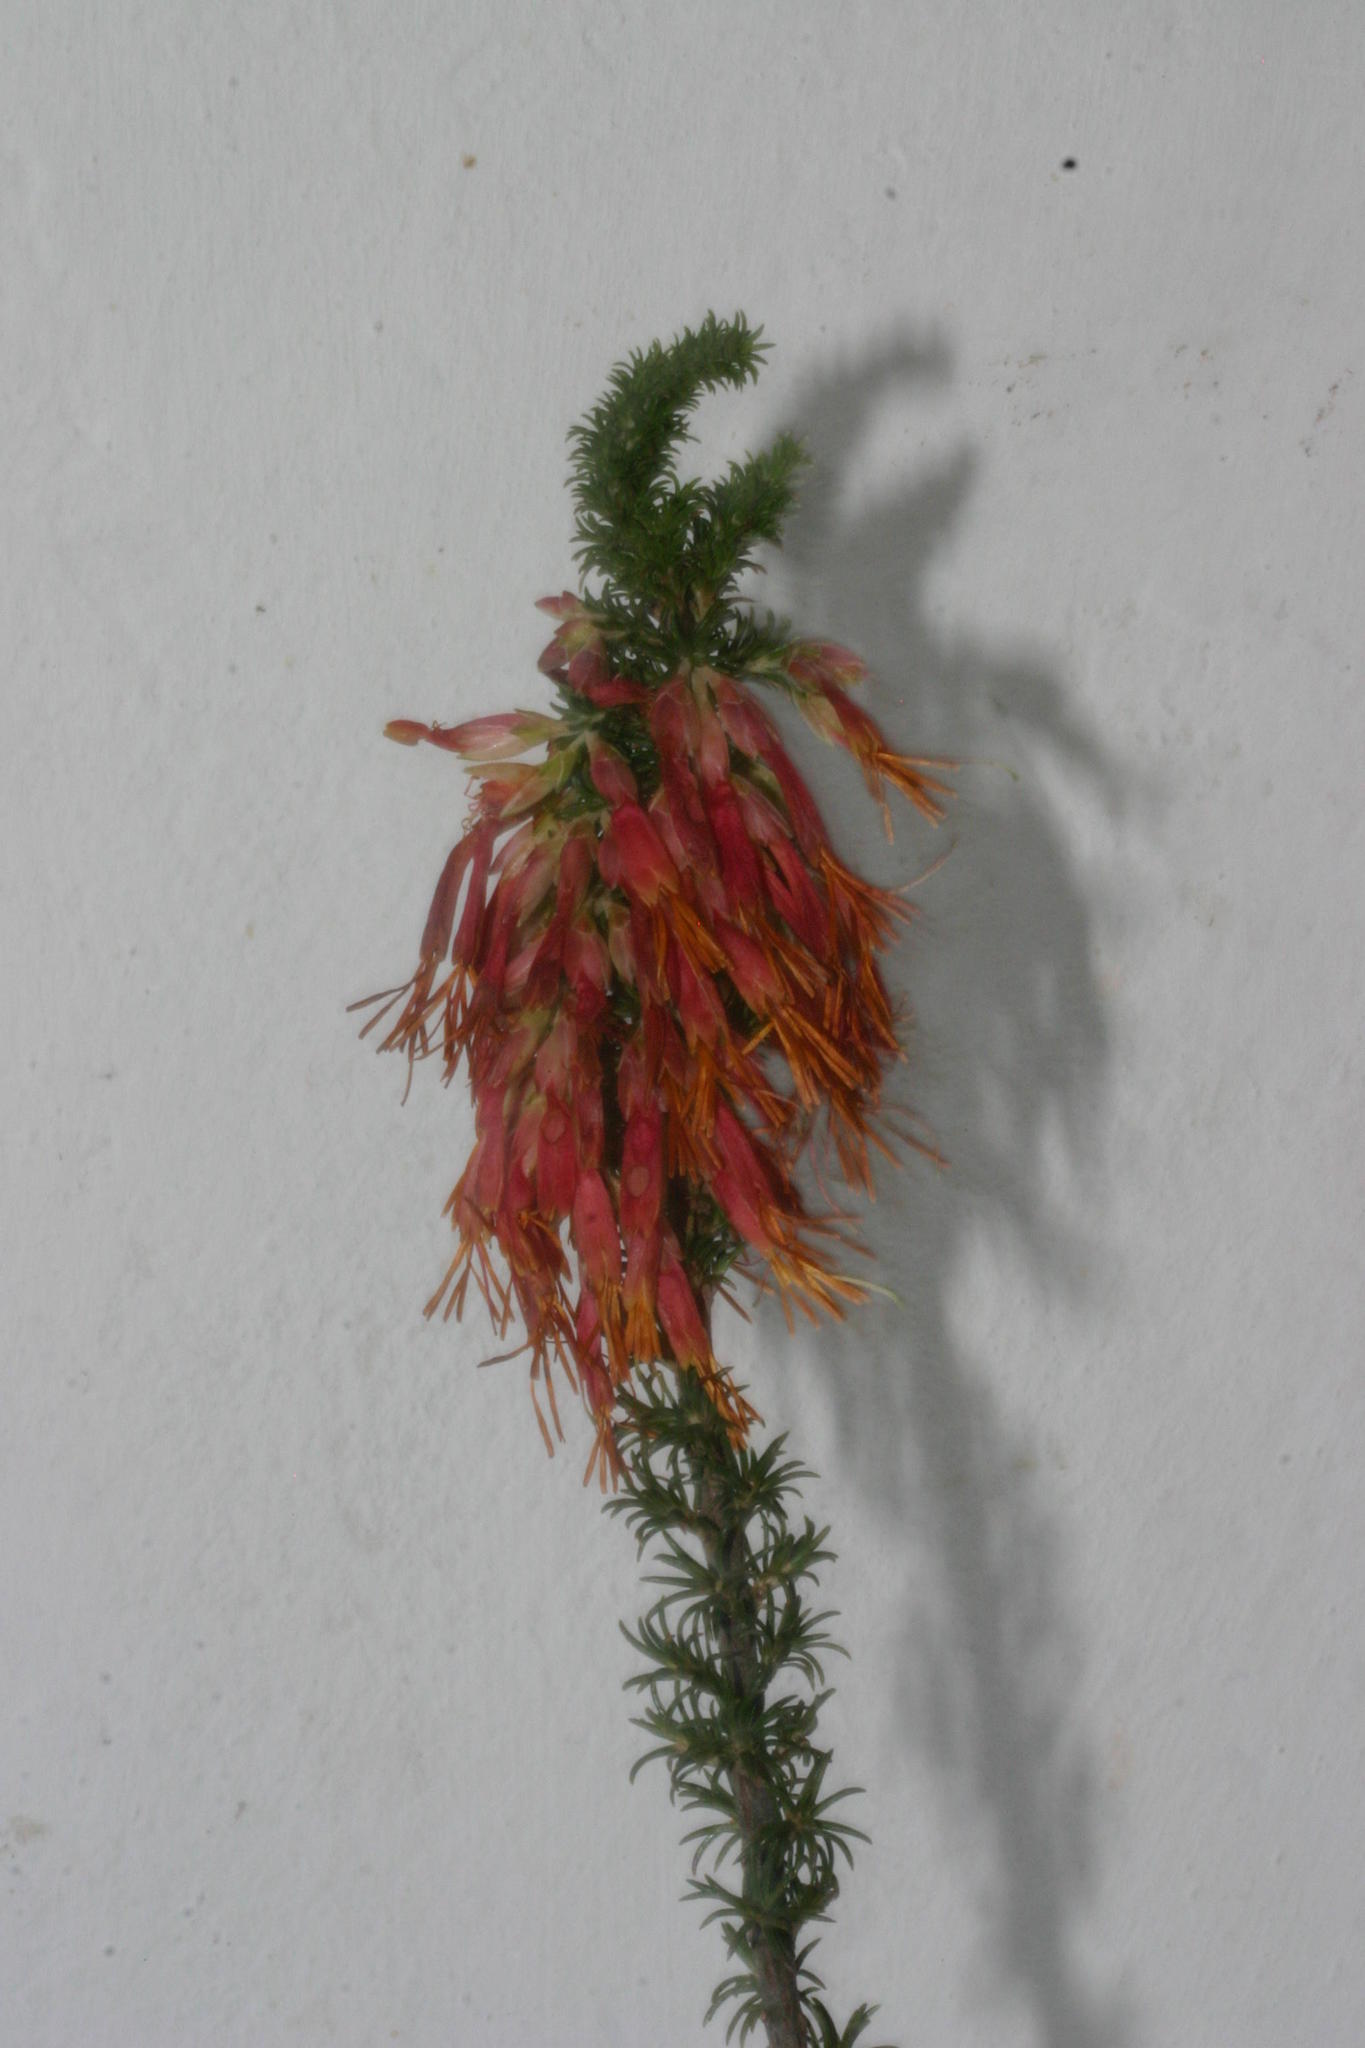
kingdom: Plantae
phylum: Tracheophyta
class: Magnoliopsida
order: Ericales
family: Ericaceae
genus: Erica
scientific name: Erica coccinea
